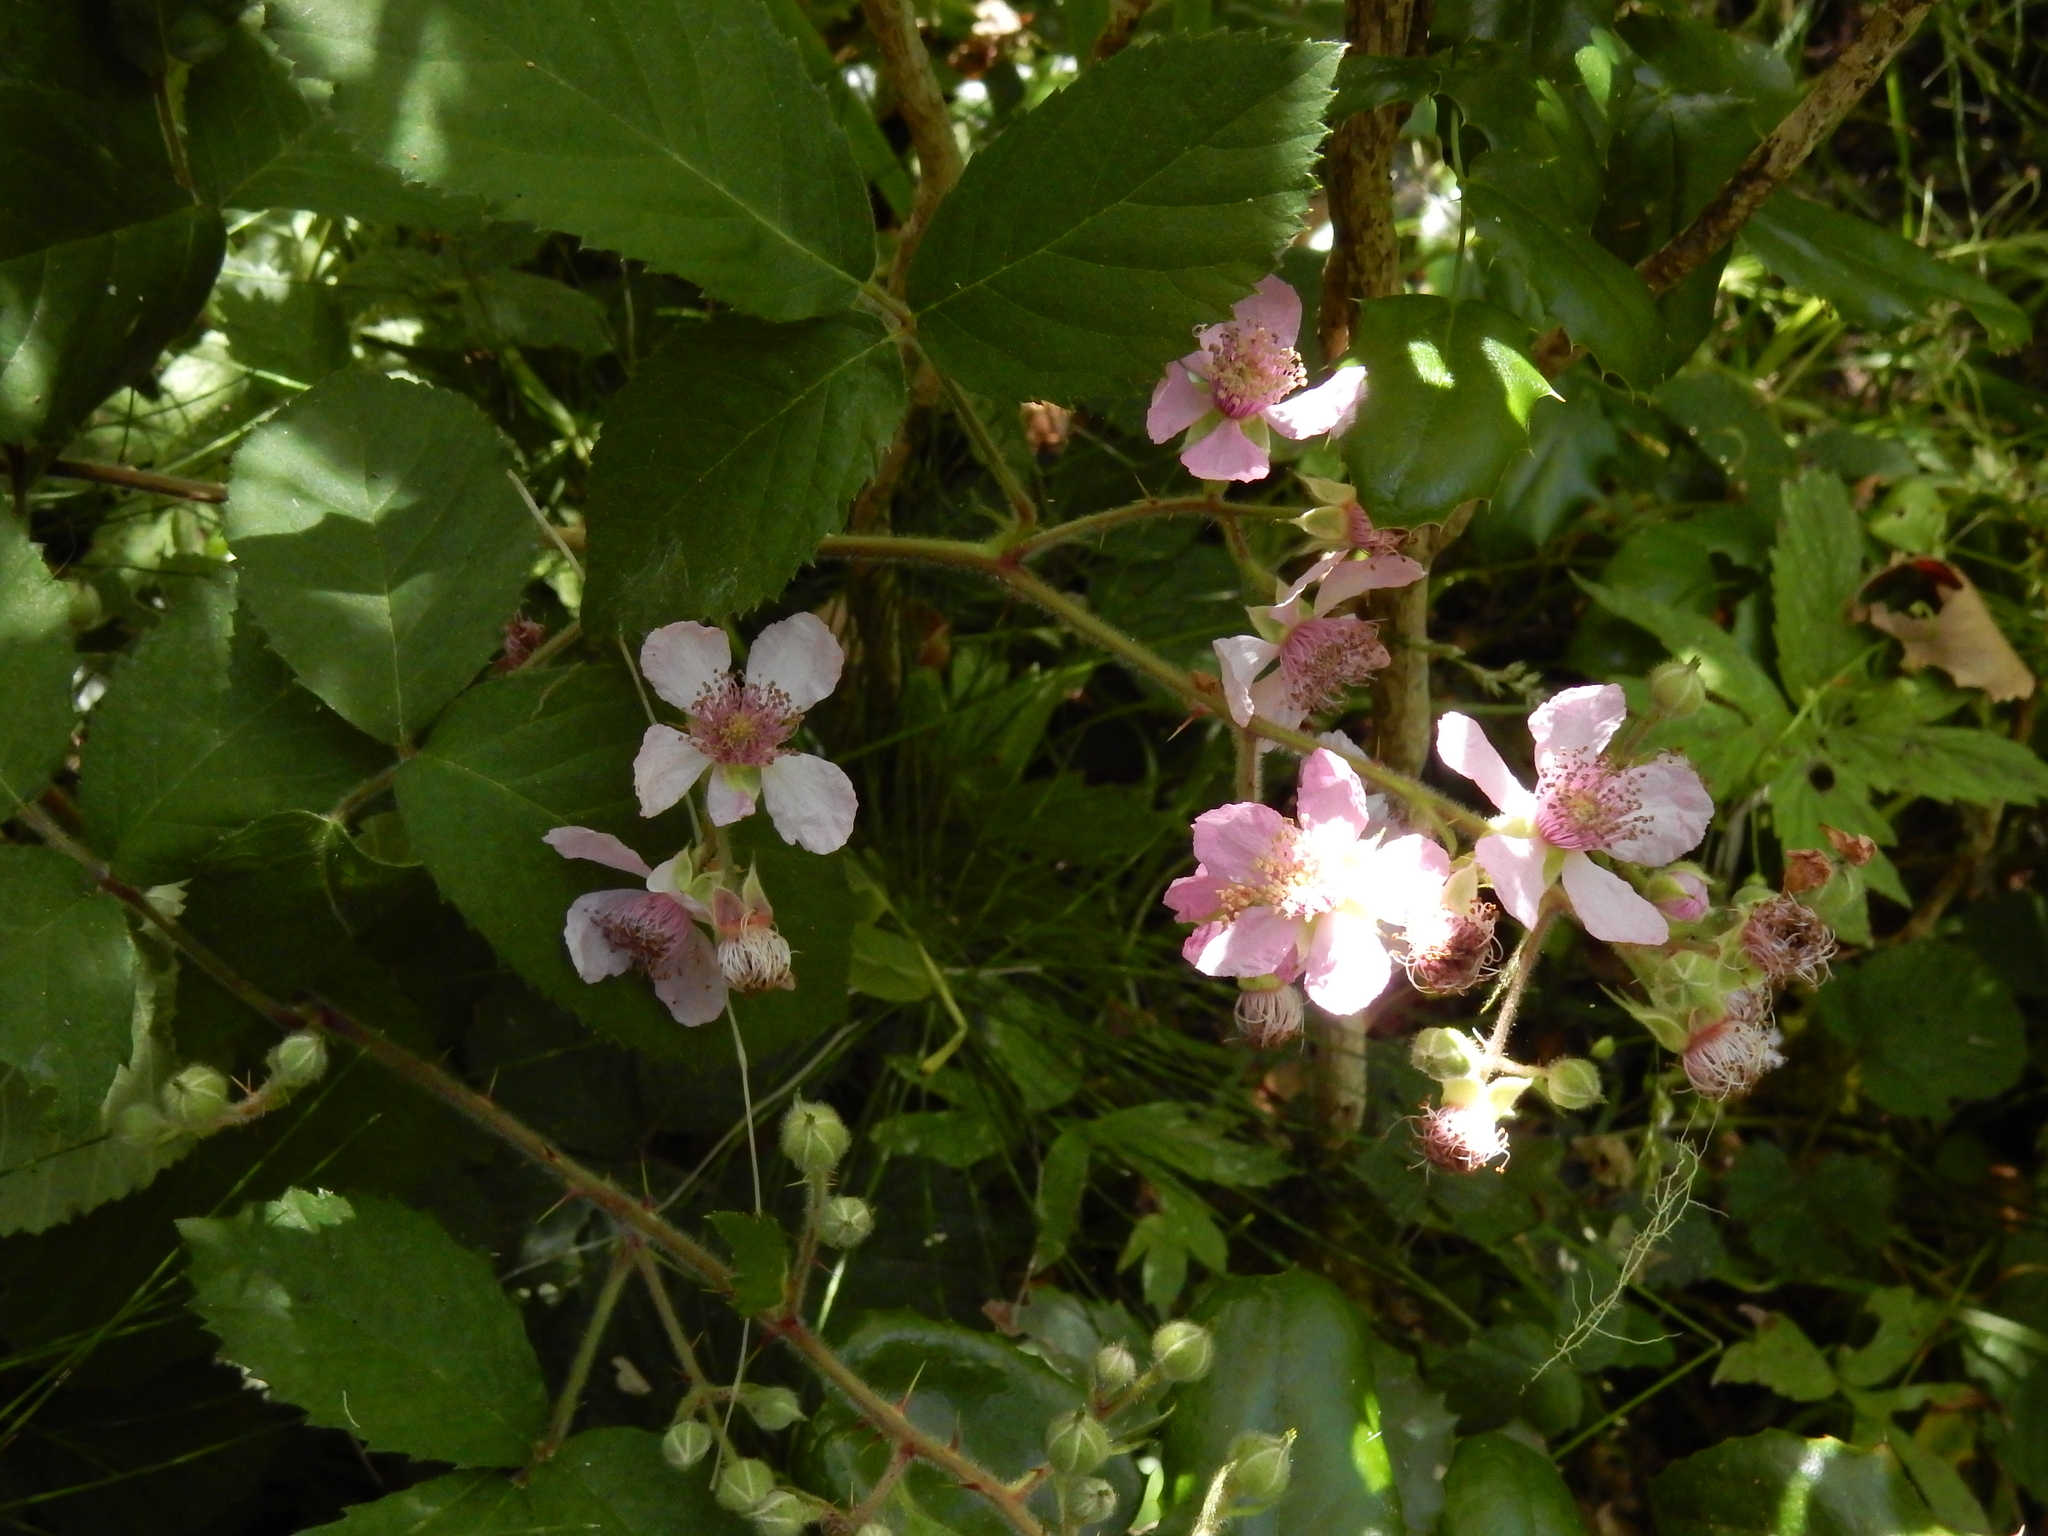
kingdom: Plantae
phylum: Tracheophyta
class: Magnoliopsida
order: Rosales
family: Rosaceae
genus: Rubus
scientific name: Rubus vestitus
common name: European blackberry
